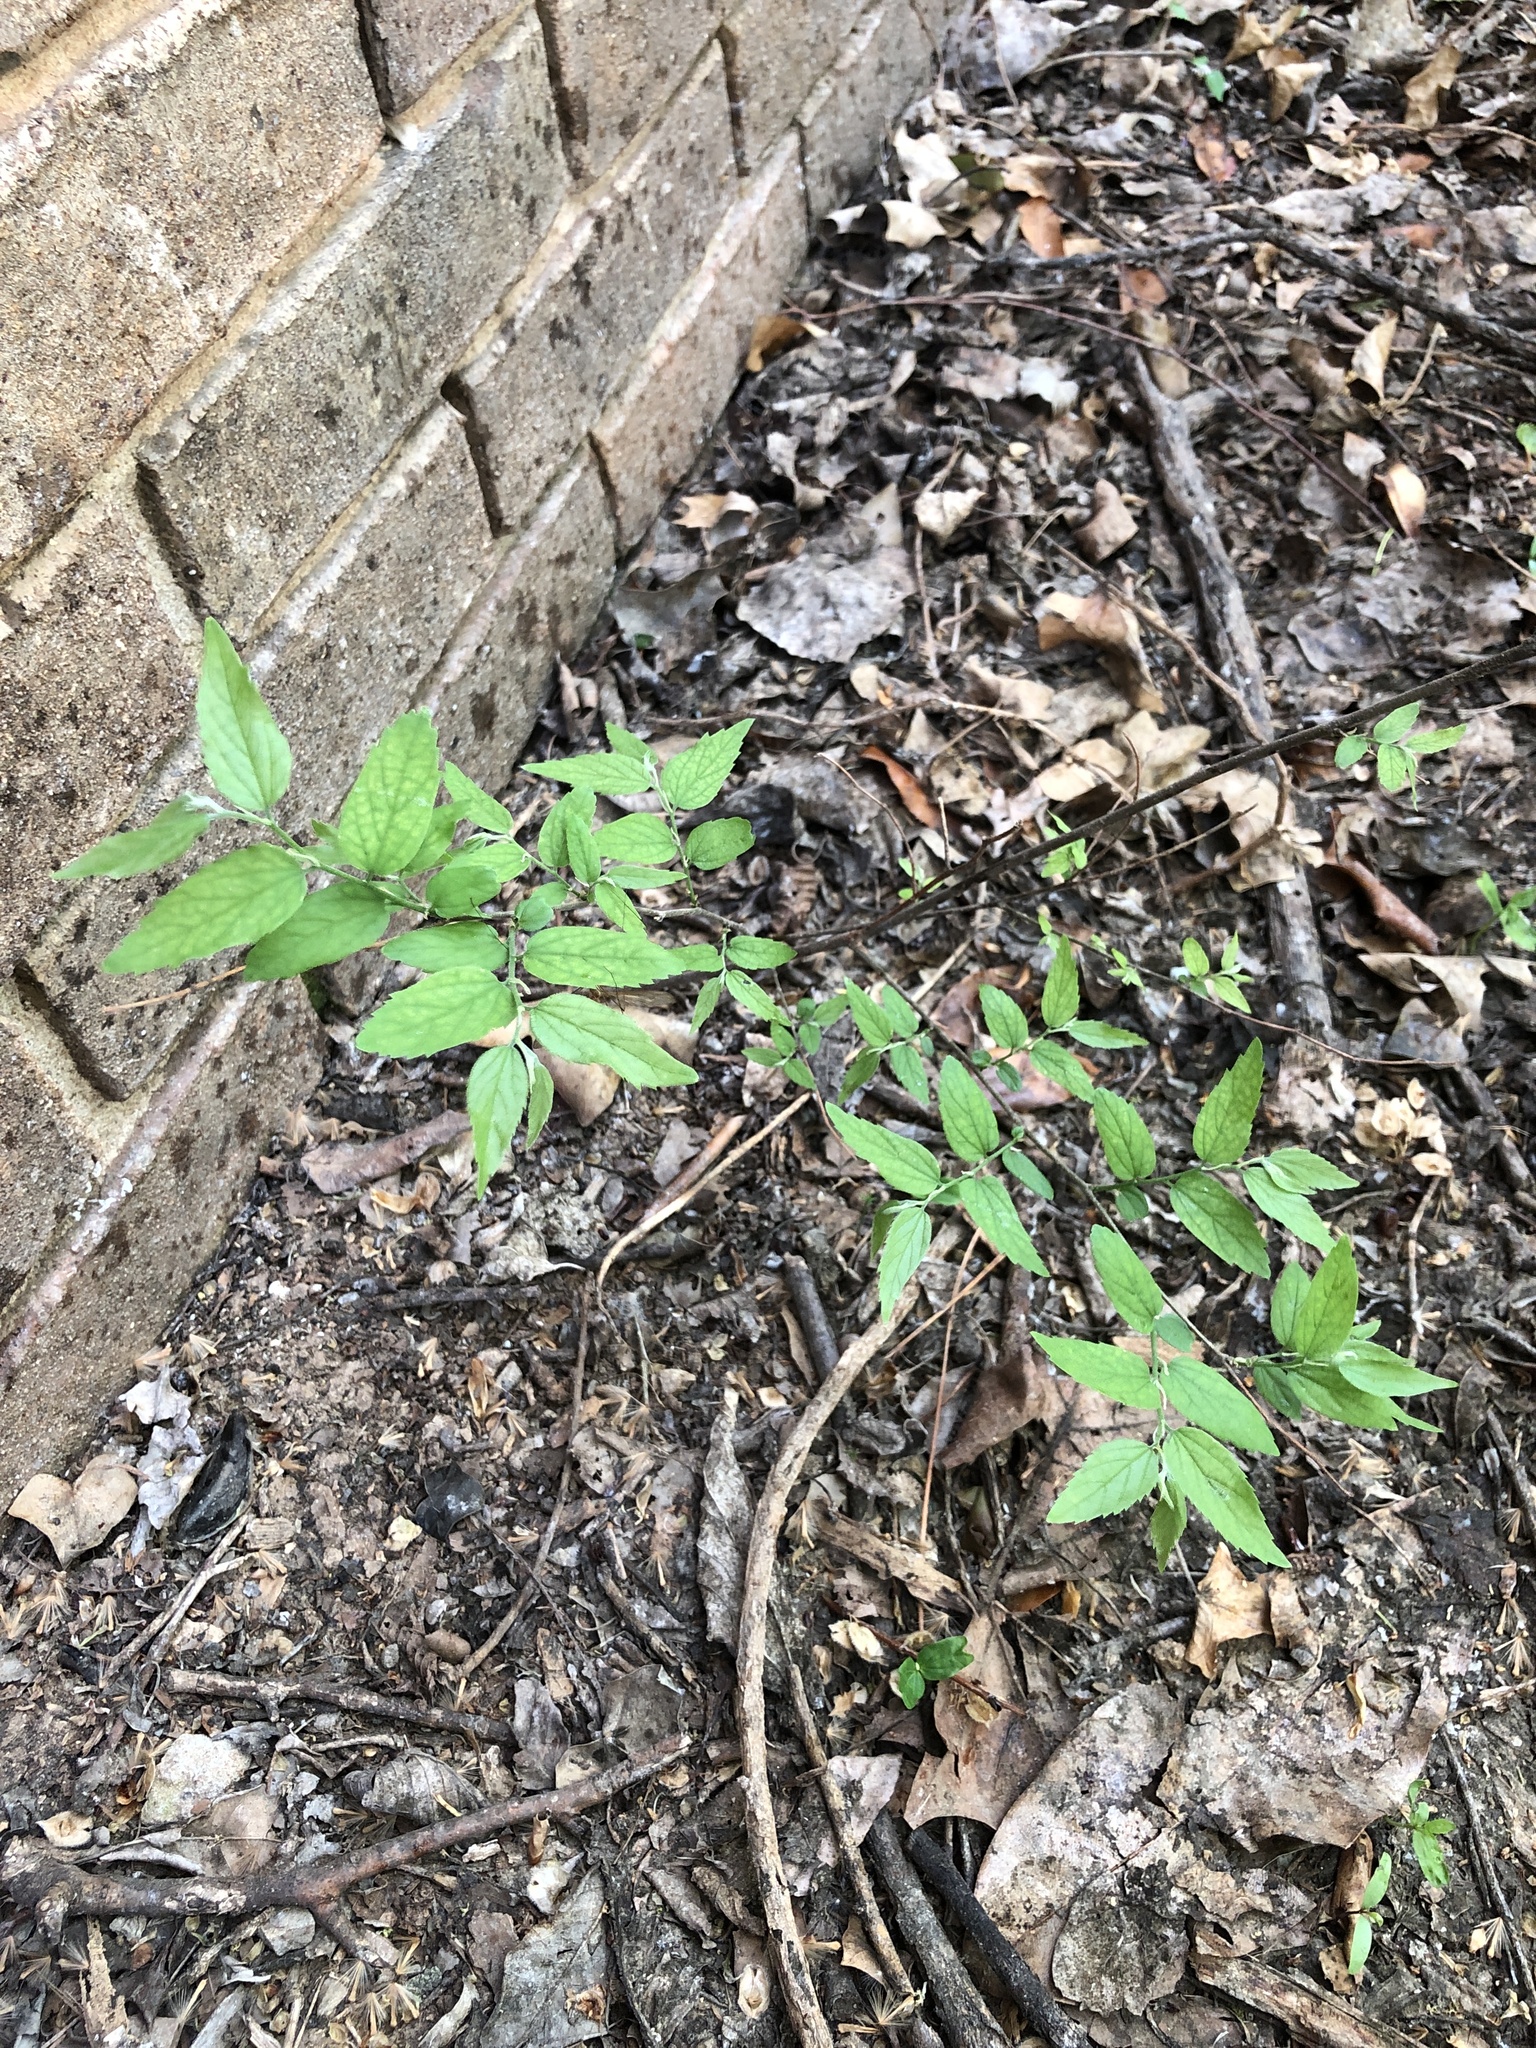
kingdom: Plantae
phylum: Tracheophyta
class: Magnoliopsida
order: Rosales
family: Cannabaceae
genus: Celtis
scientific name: Celtis laevigata
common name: Sugarberry
